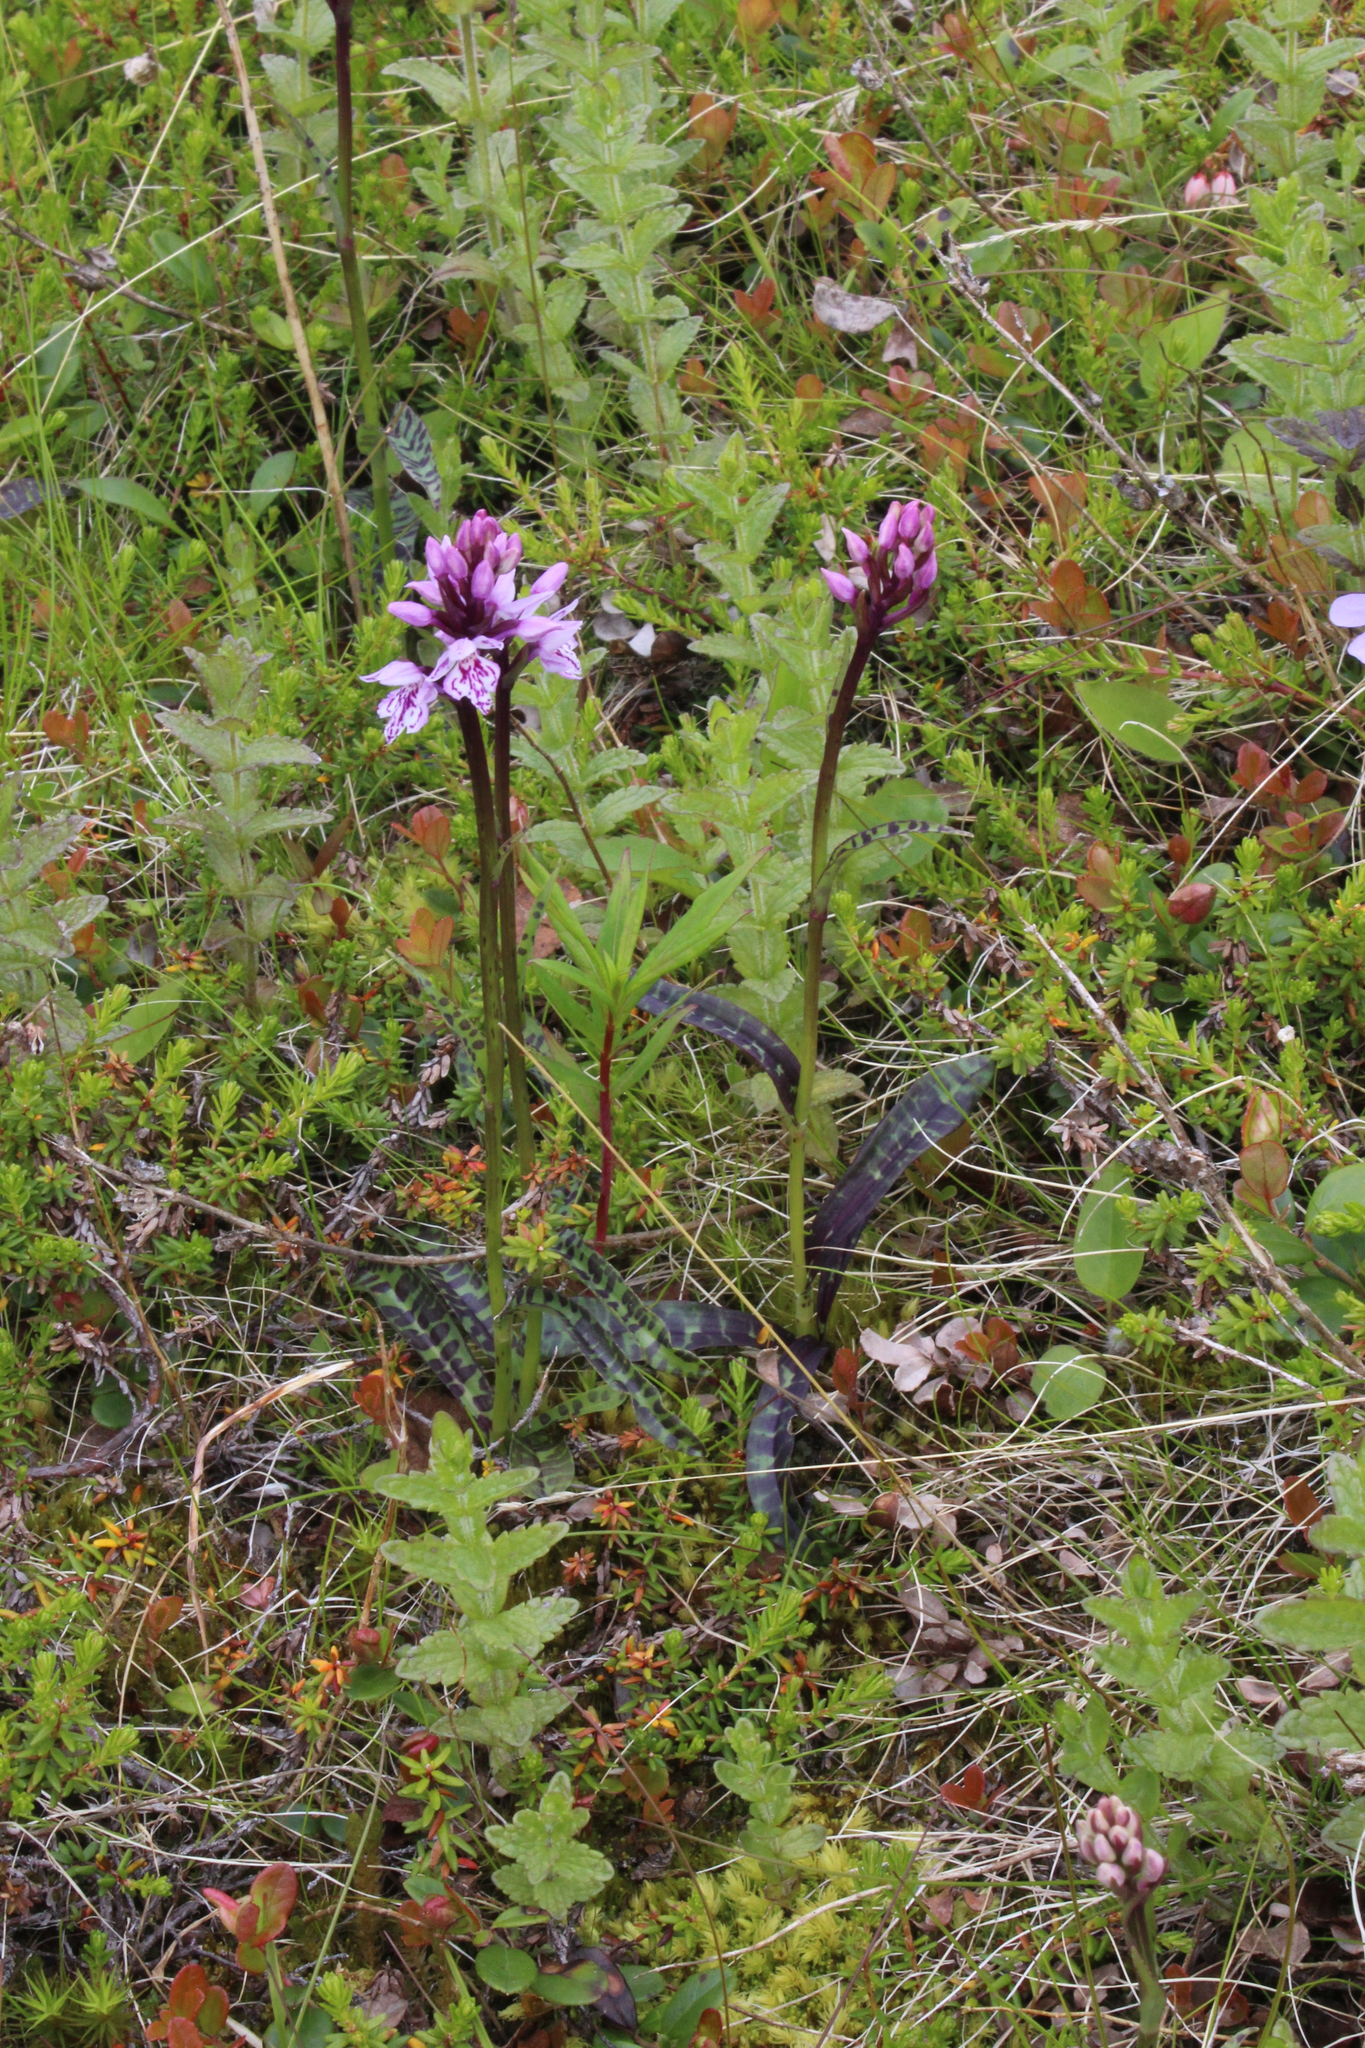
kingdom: Plantae
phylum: Tracheophyta
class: Liliopsida
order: Asparagales
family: Orchidaceae
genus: Dactylorhiza
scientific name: Dactylorhiza maculata
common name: Heath spotted-orchid
